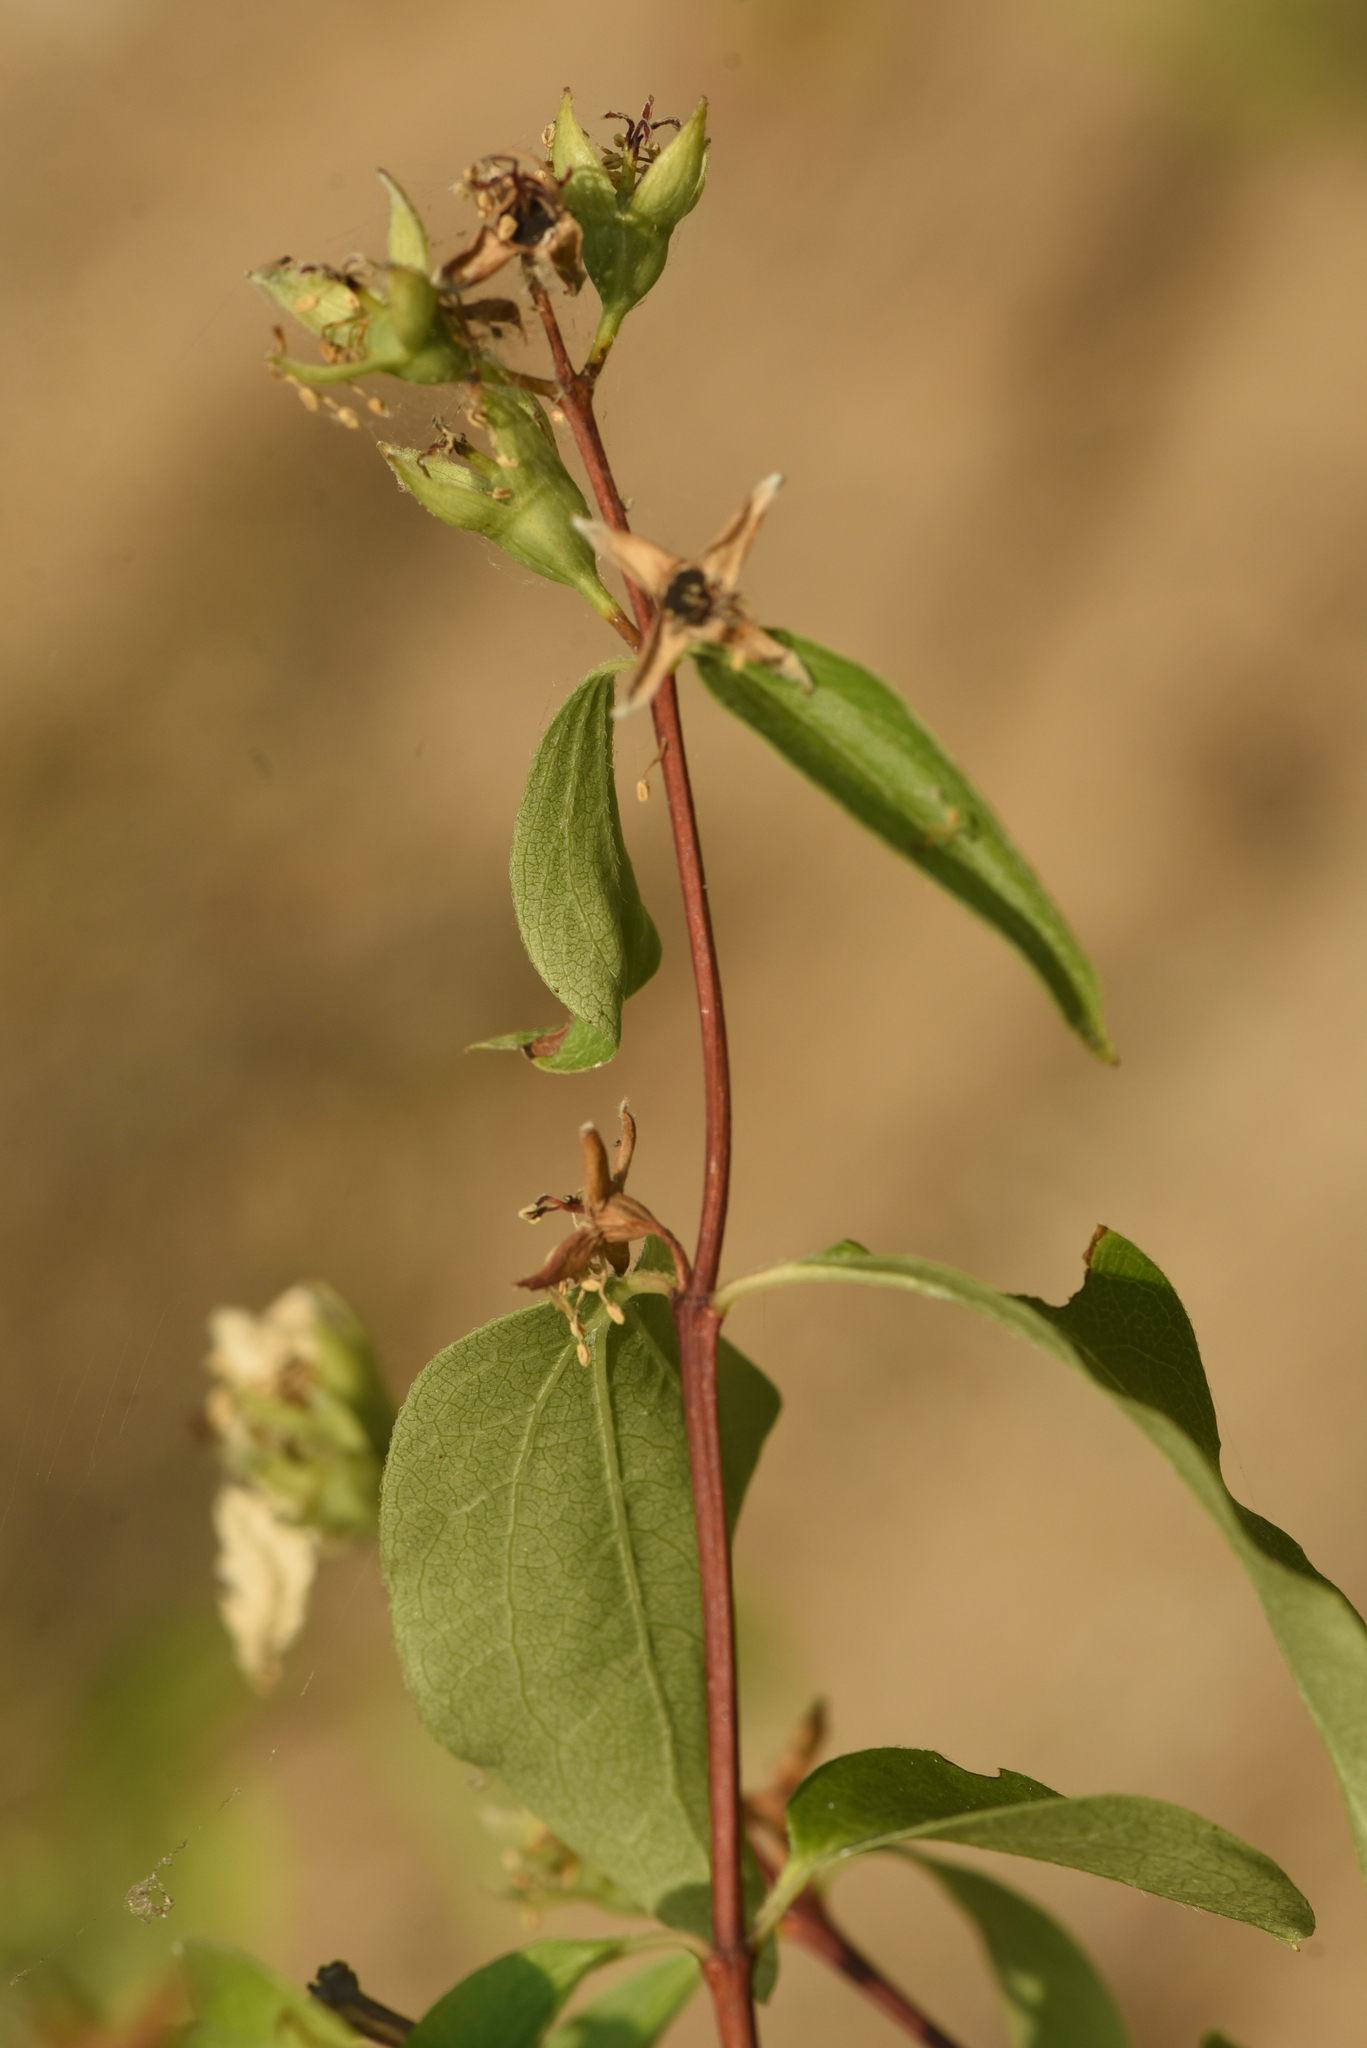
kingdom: Plantae
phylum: Tracheophyta
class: Magnoliopsida
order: Cornales
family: Hydrangeaceae
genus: Philadelphus
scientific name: Philadelphus lewisii
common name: Lewis's mock orange
